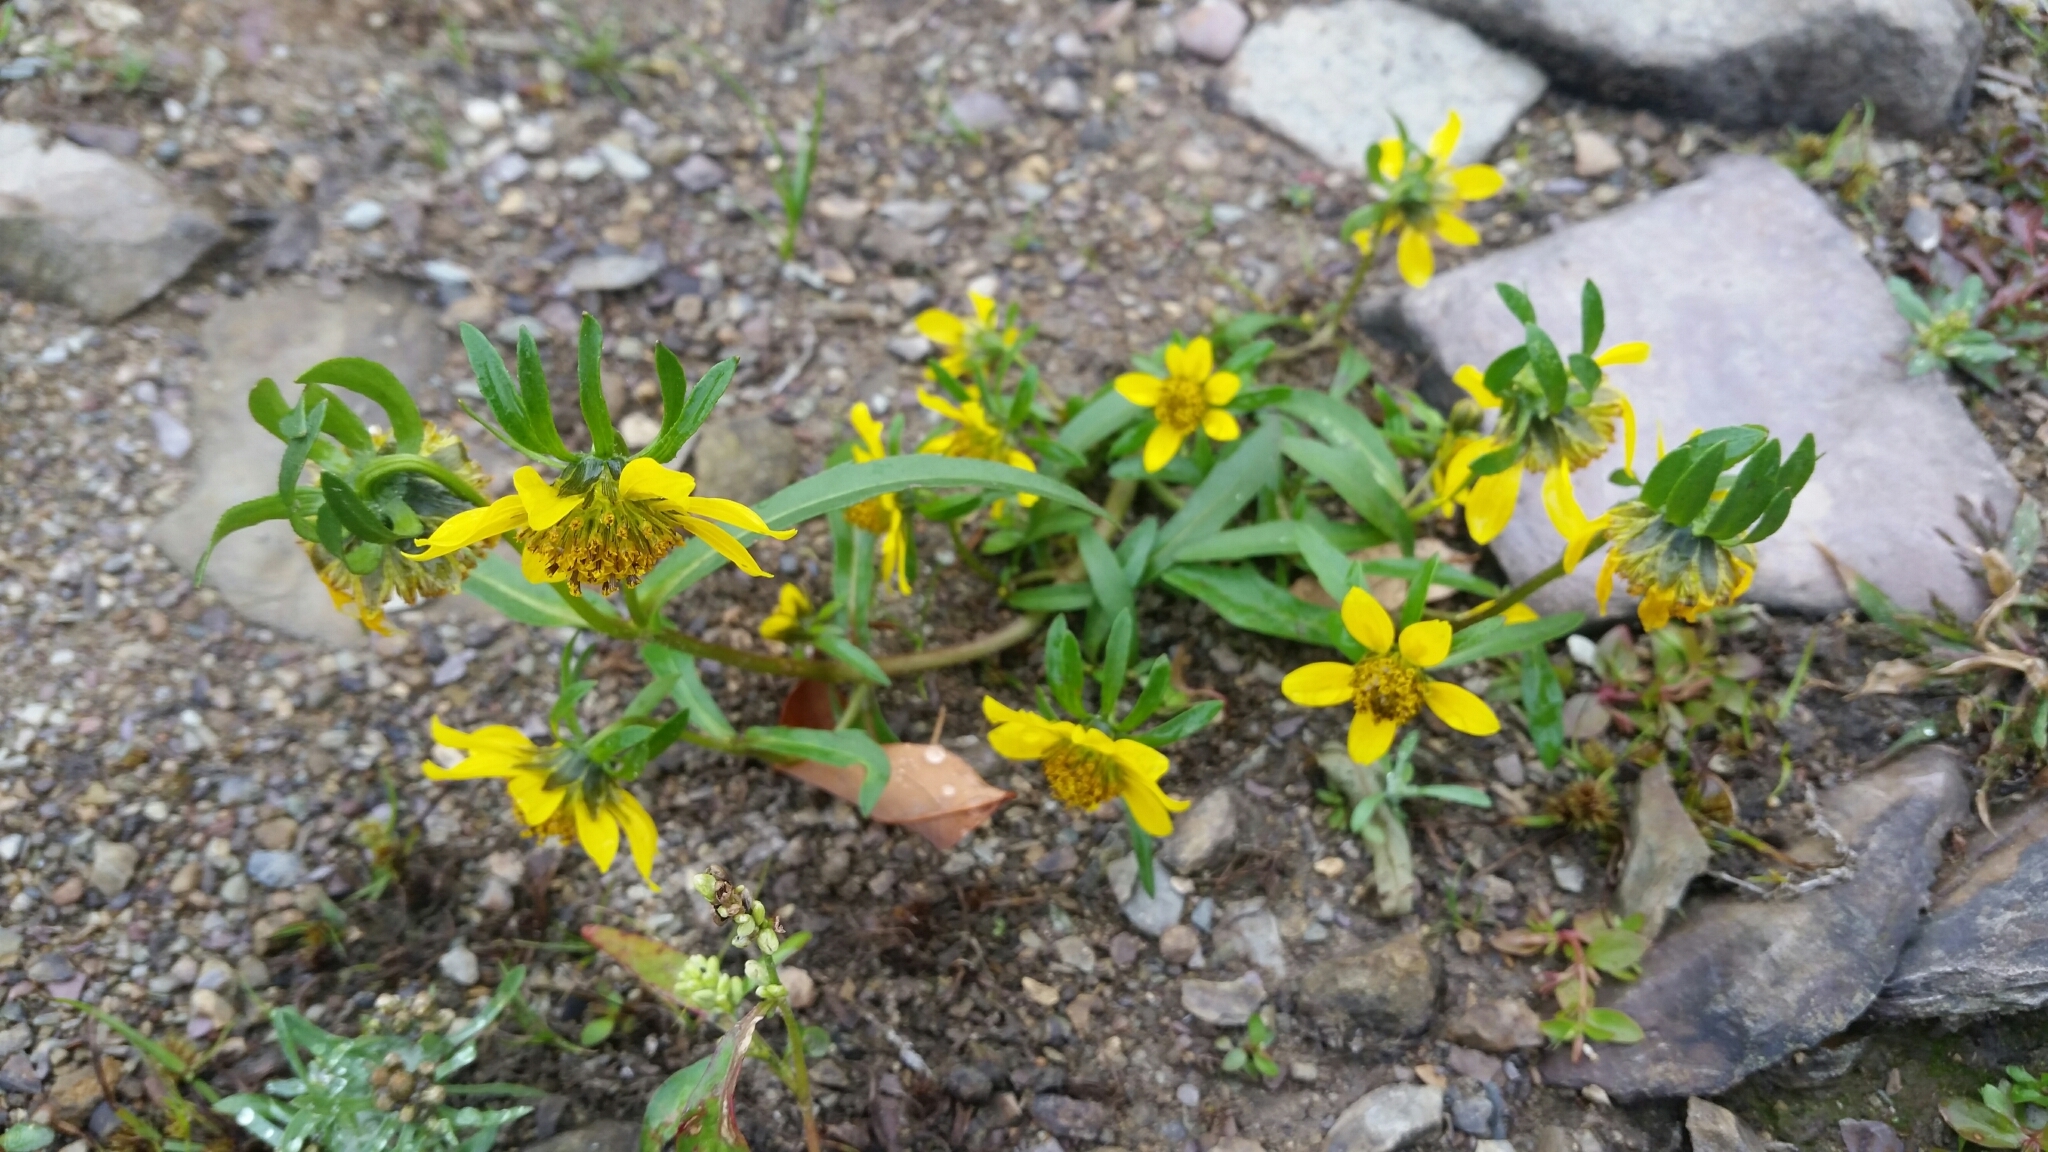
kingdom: Plantae
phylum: Tracheophyta
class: Magnoliopsida
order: Asterales
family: Asteraceae
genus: Bidens
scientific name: Bidens cernua
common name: Nodding bur-marigold
